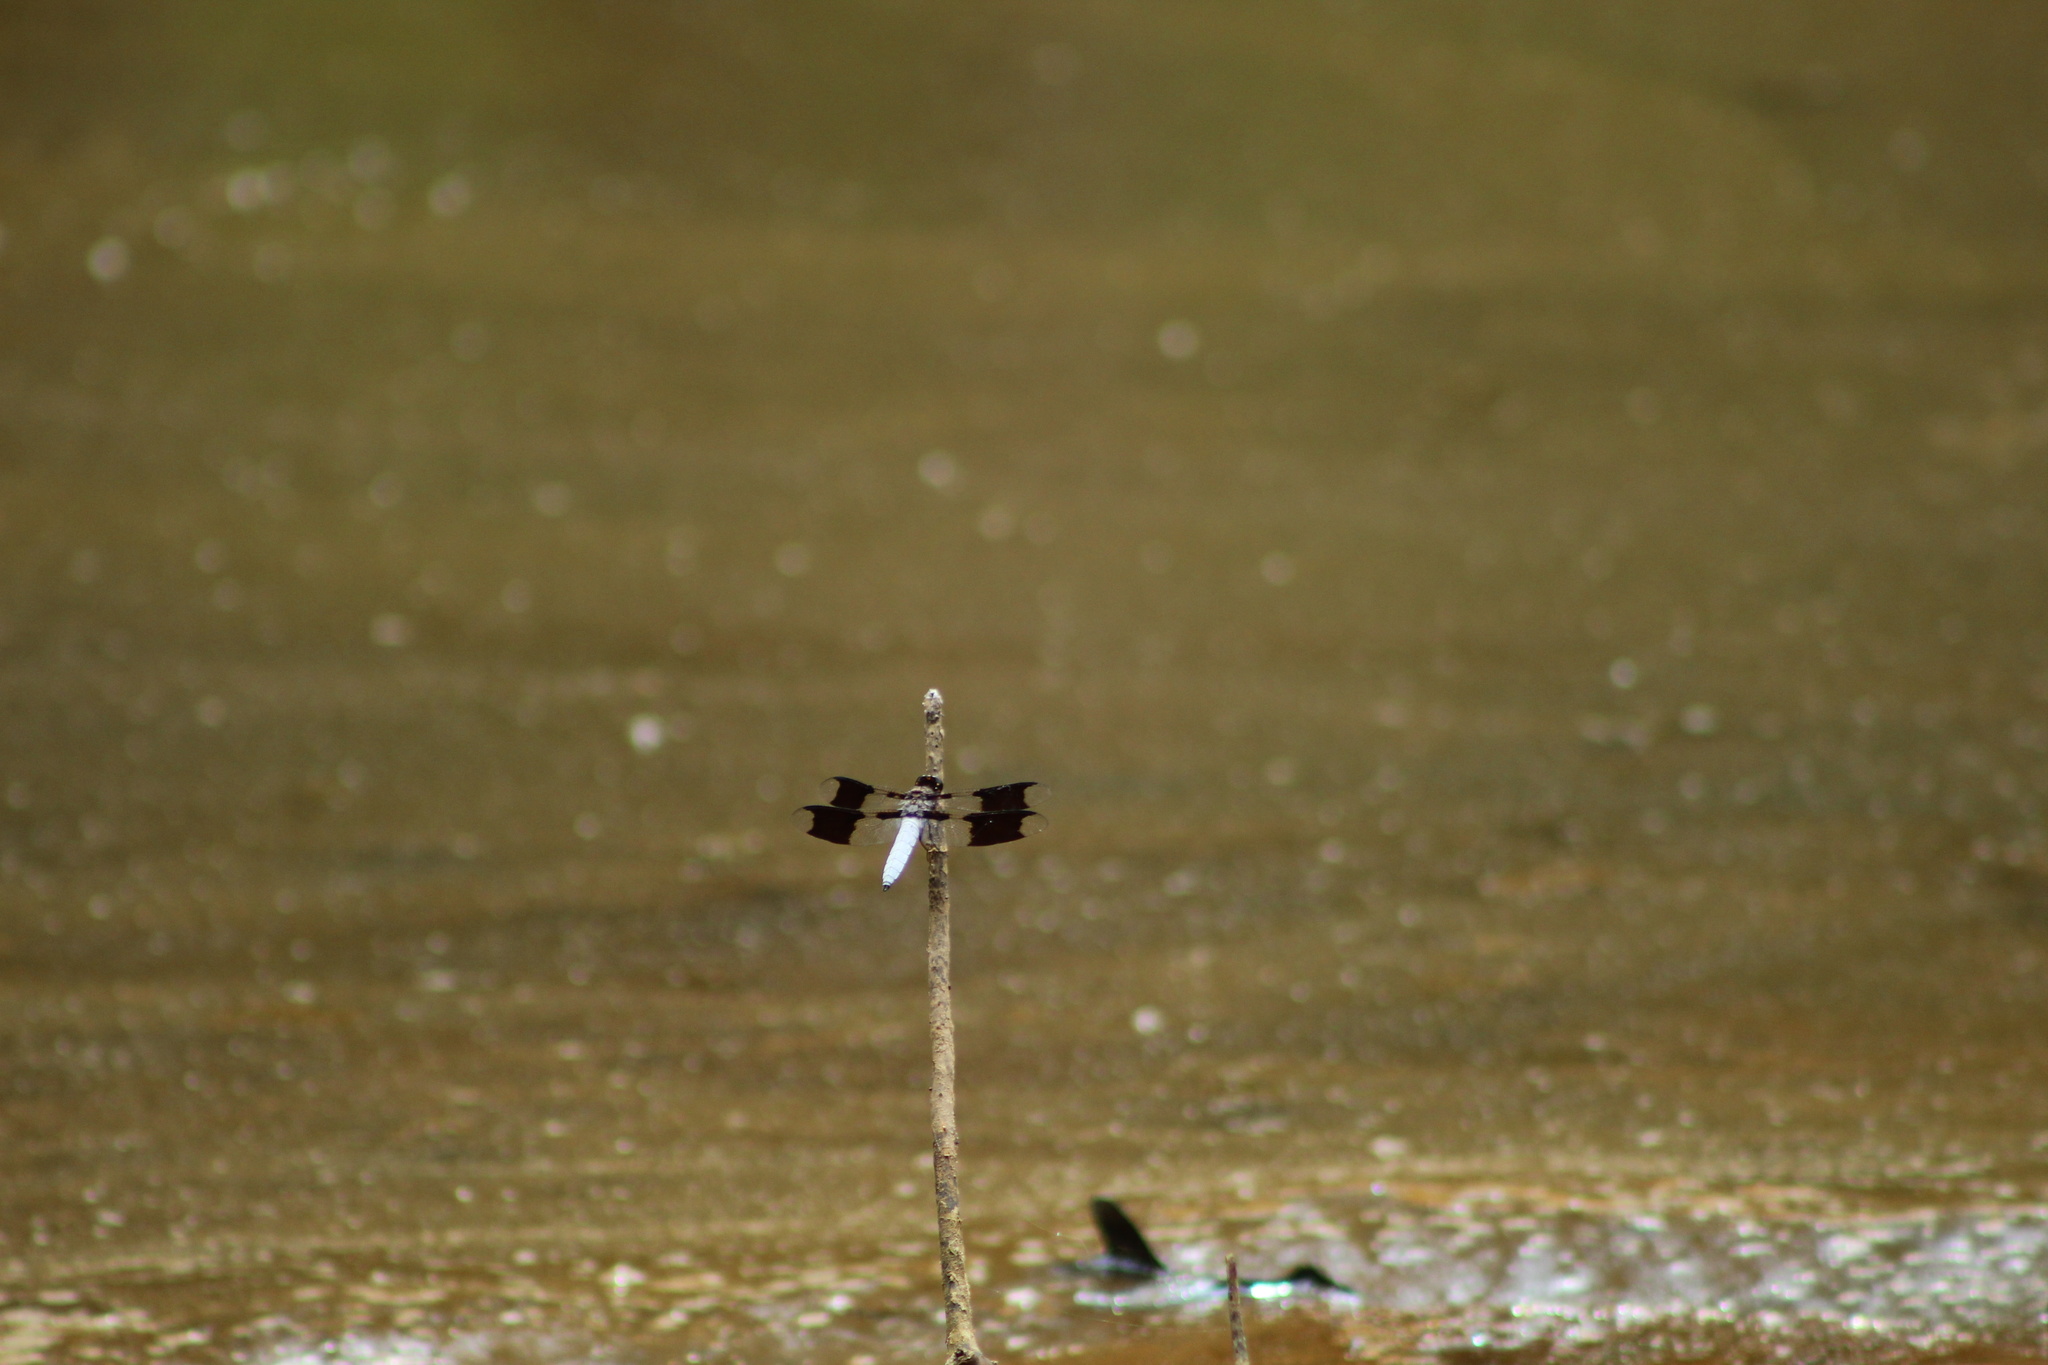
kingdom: Animalia
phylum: Arthropoda
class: Insecta
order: Odonata
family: Libellulidae
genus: Plathemis
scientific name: Plathemis lydia
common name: Common whitetail
